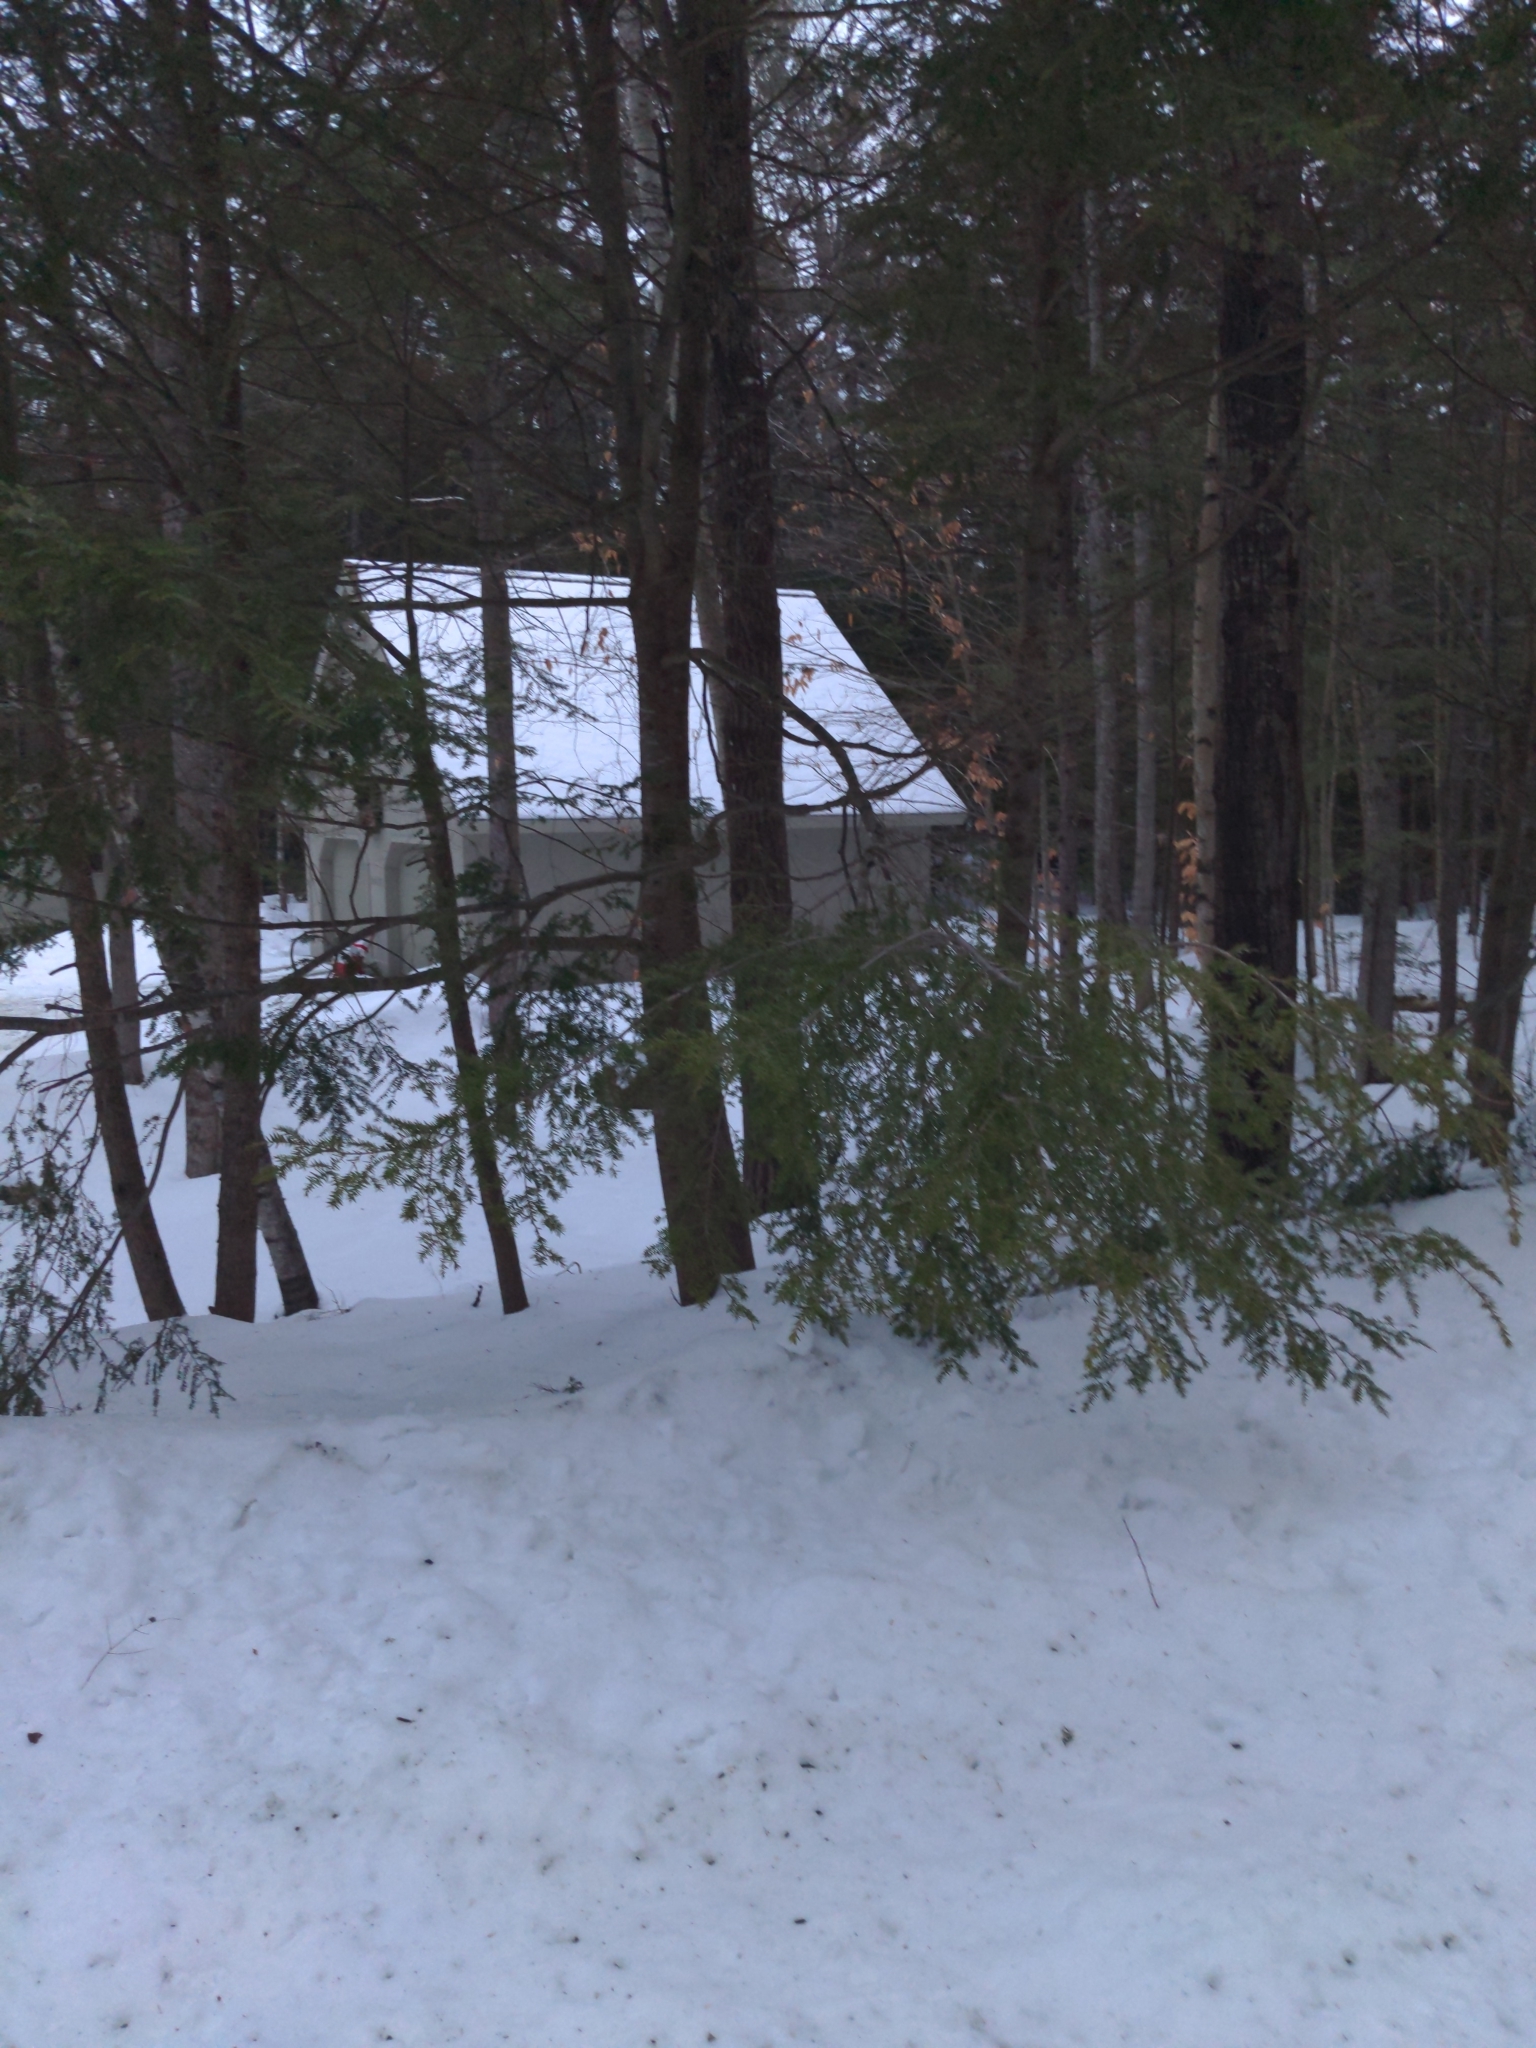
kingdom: Plantae
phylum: Tracheophyta
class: Pinopsida
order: Pinales
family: Pinaceae
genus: Tsuga
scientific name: Tsuga canadensis
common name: Eastern hemlock
